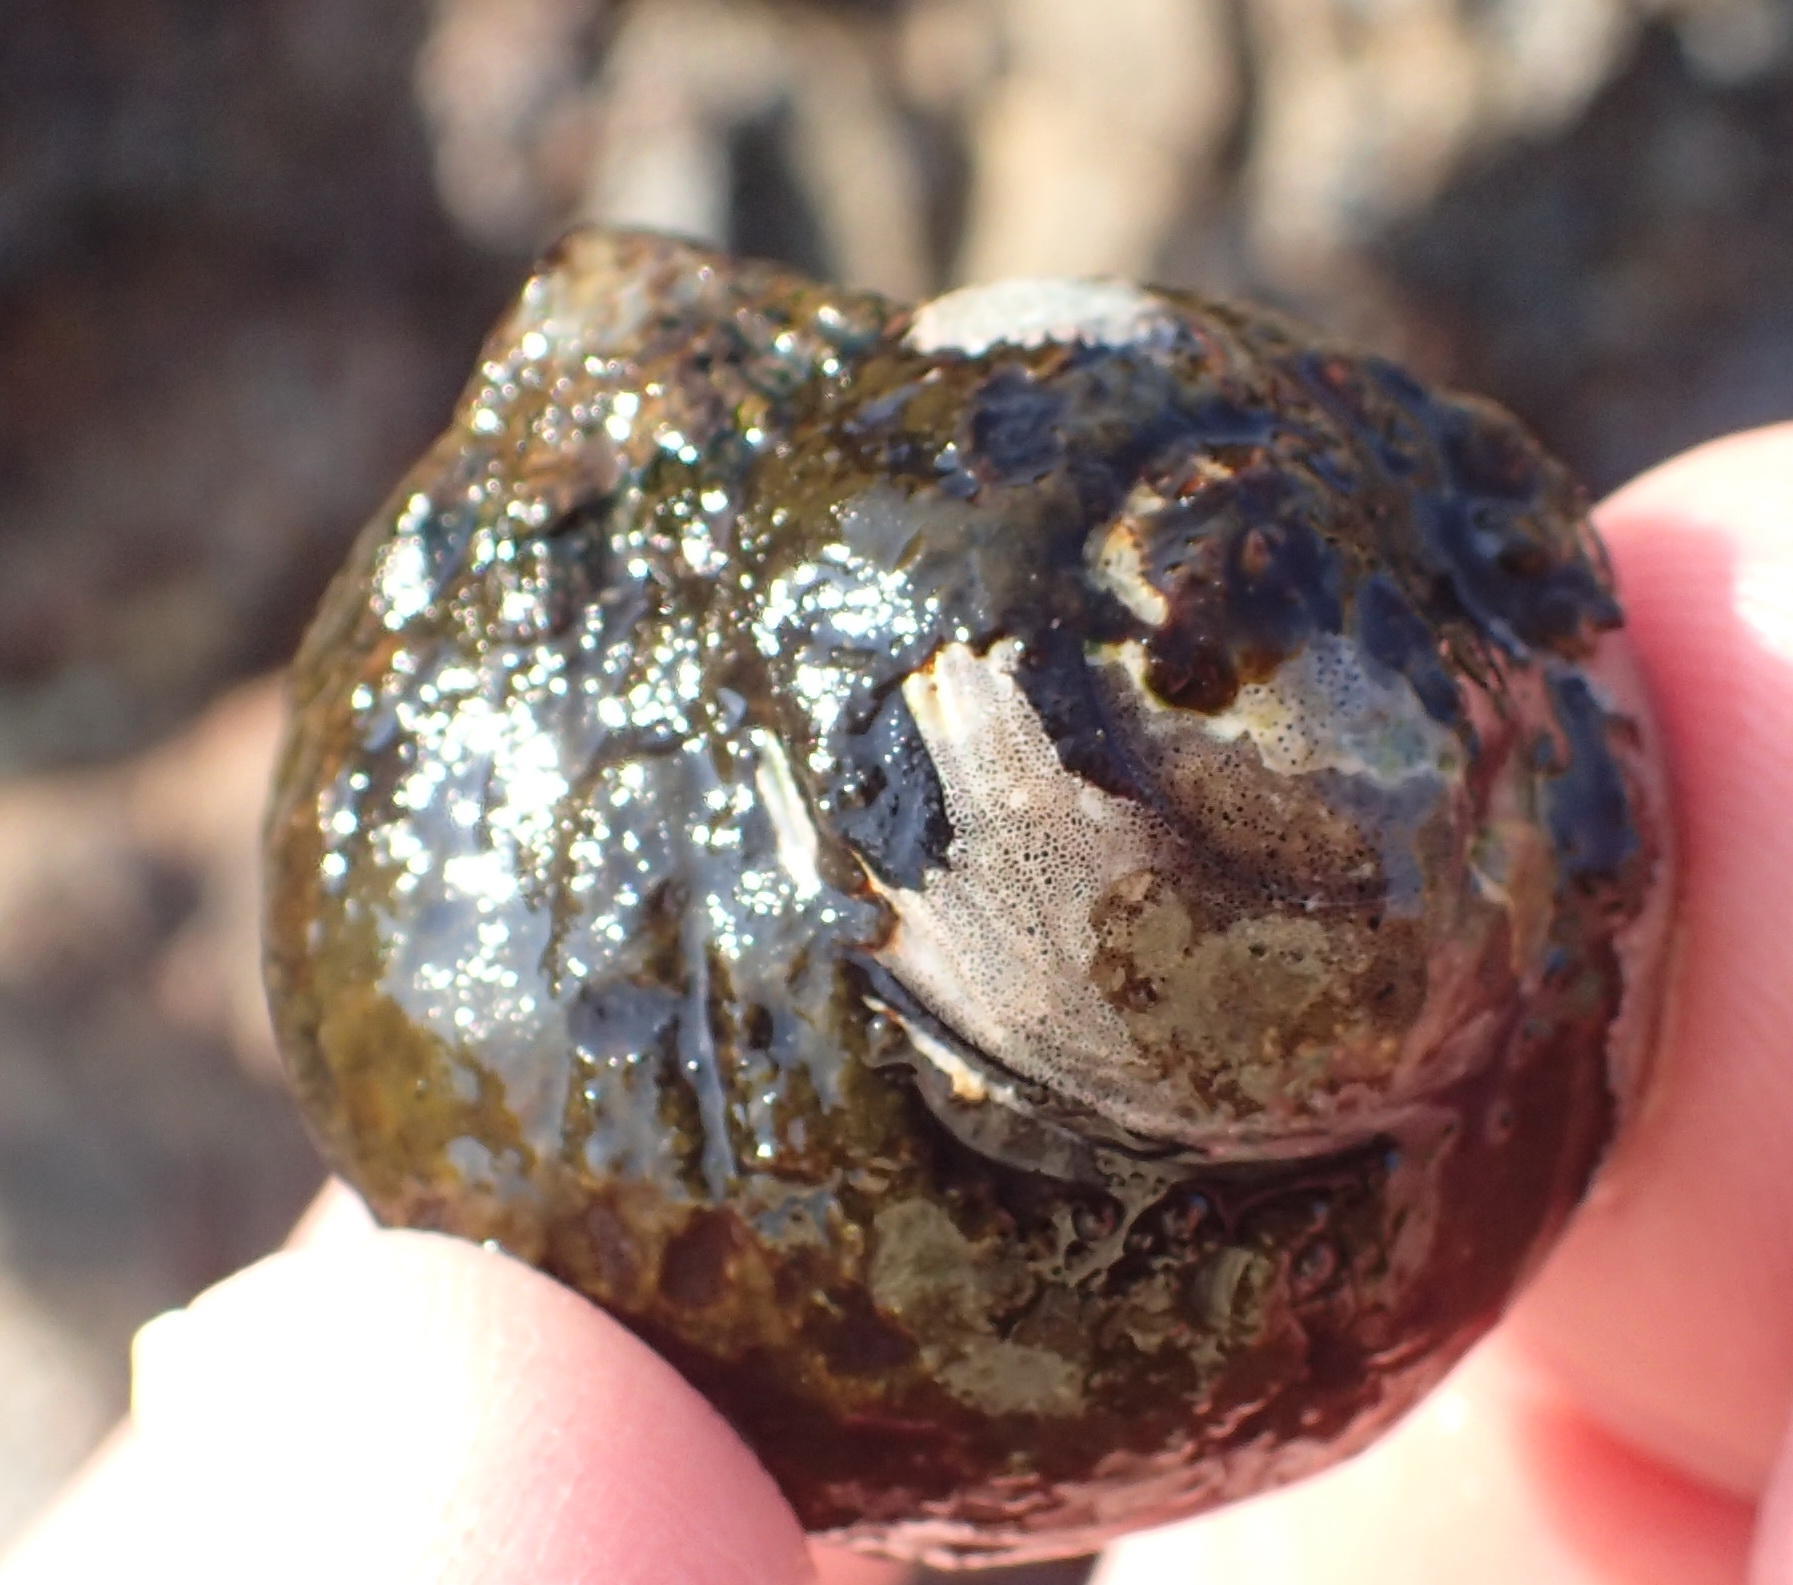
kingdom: Animalia
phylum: Mollusca
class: Gastropoda
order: Trochida
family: Trochidae
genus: Oxystele
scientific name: Oxystele sinensis
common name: Pink-lipped topshell
